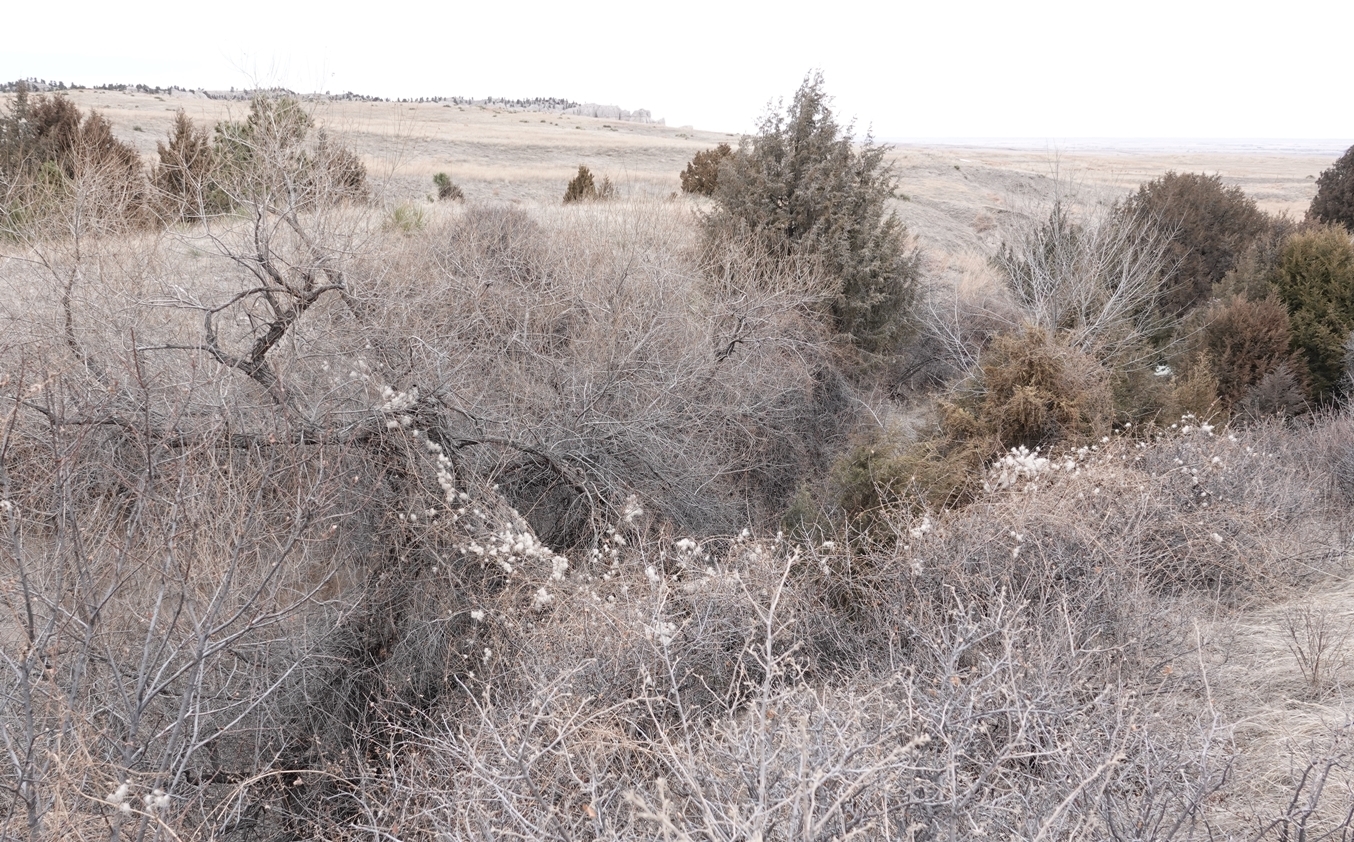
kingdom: Plantae
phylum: Tracheophyta
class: Magnoliopsida
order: Ranunculales
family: Ranunculaceae
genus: Clematis
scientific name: Clematis ligusticifolia
